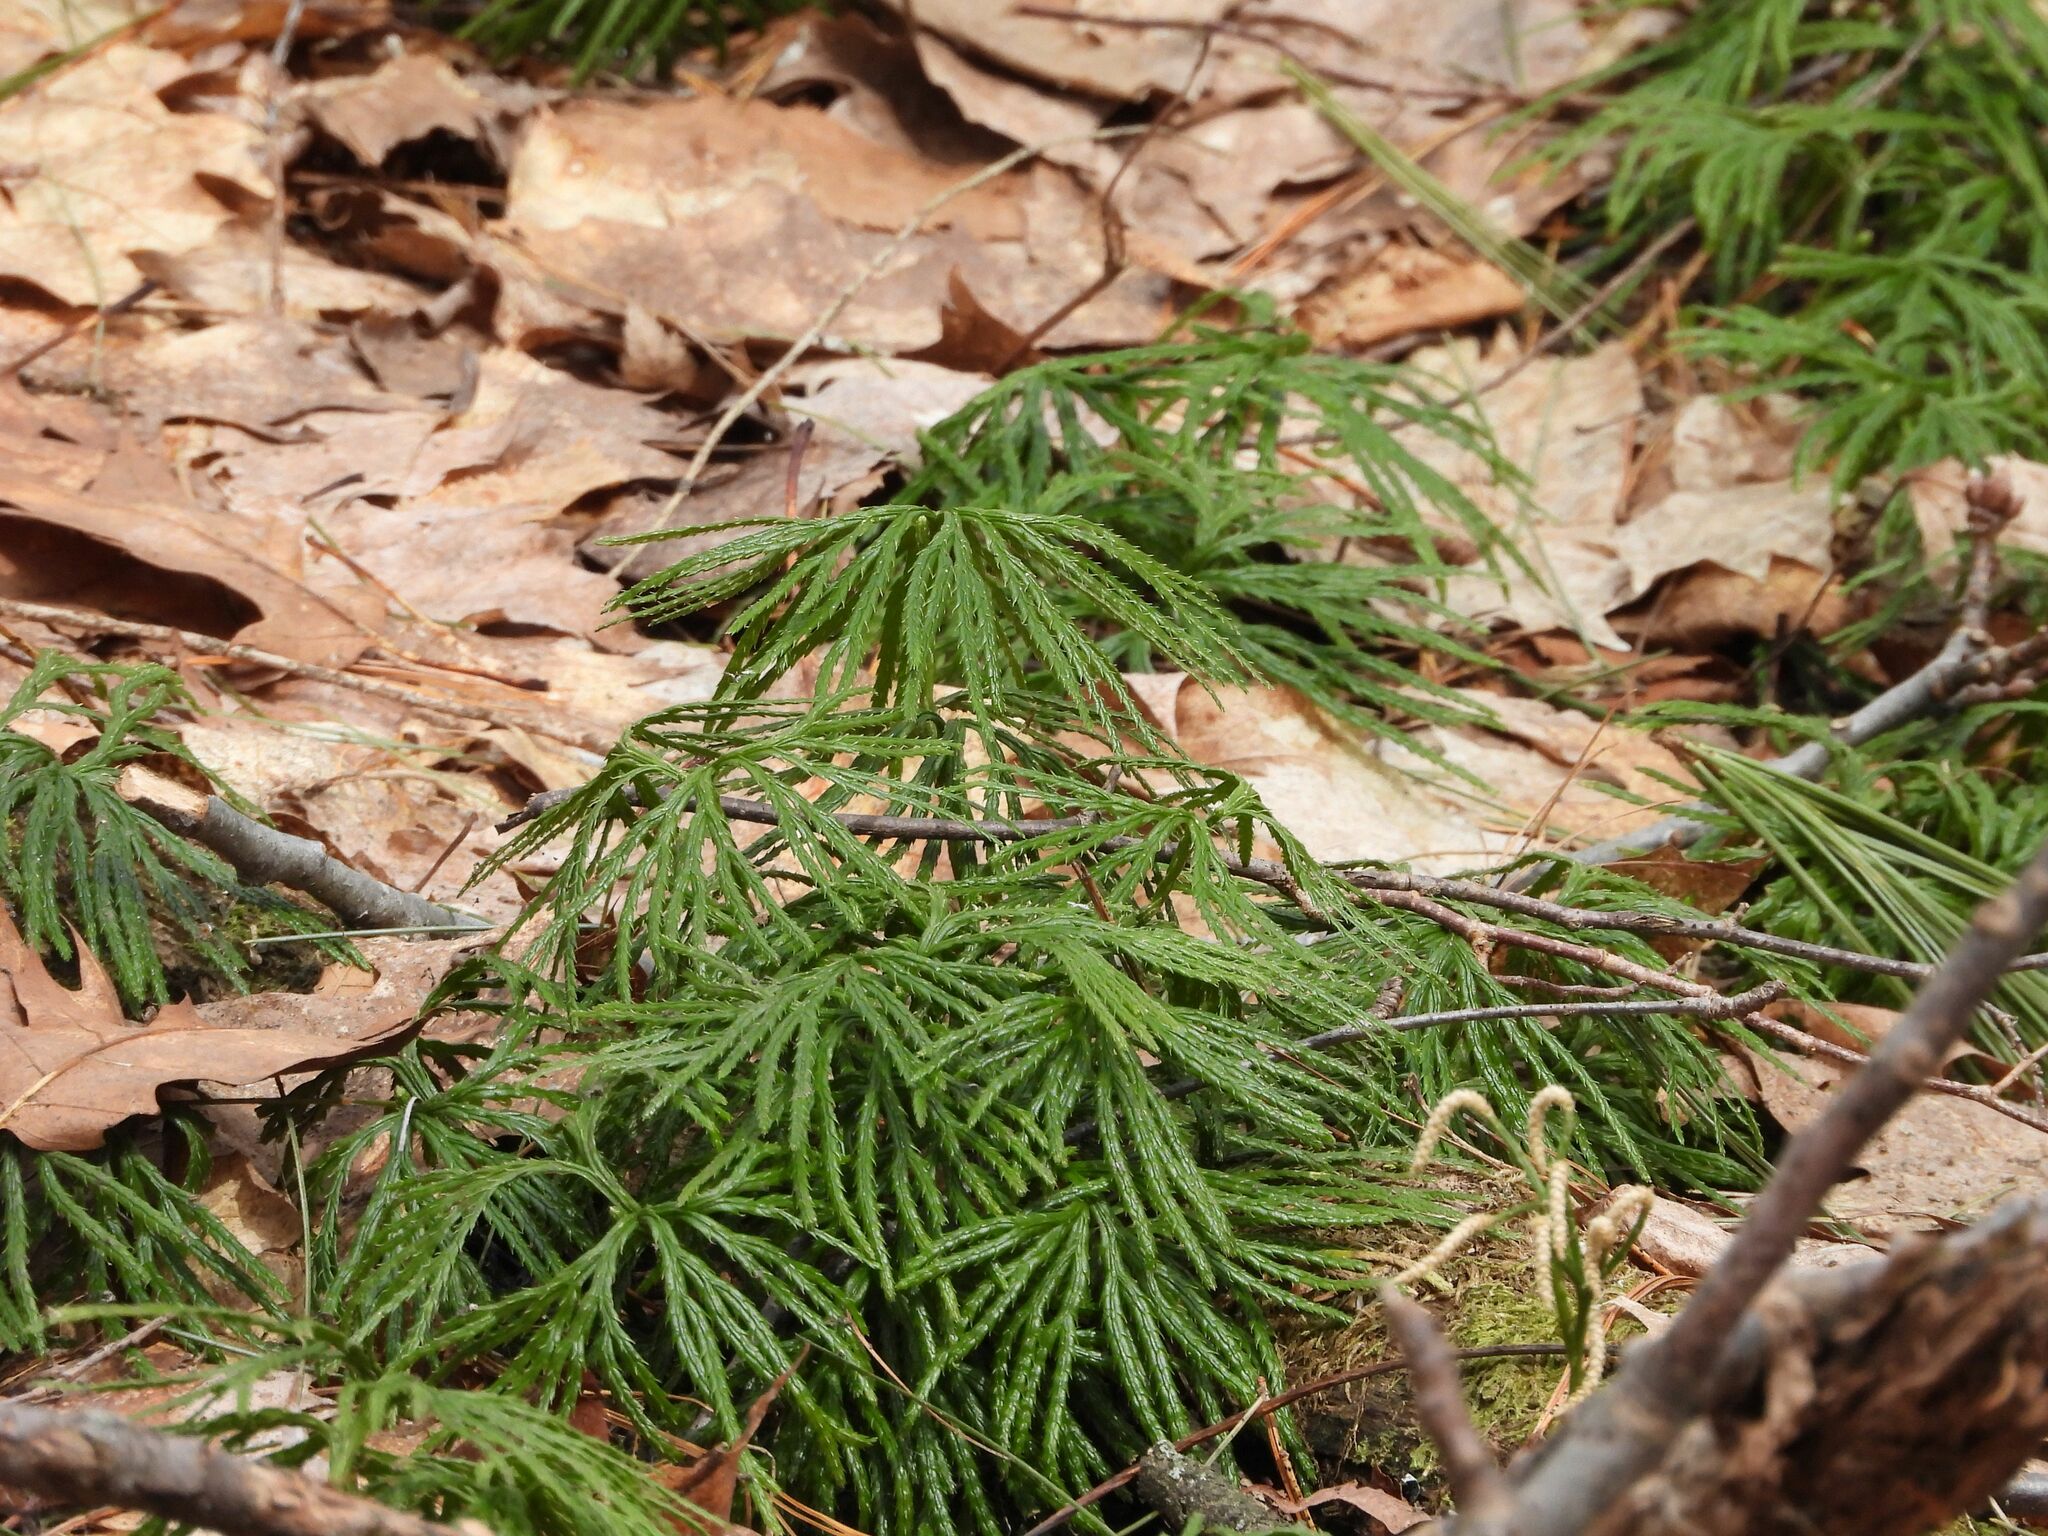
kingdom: Plantae
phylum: Tracheophyta
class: Lycopodiopsida
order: Lycopodiales
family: Lycopodiaceae
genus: Diphasiastrum
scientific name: Diphasiastrum digitatum
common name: Southern running-pine
